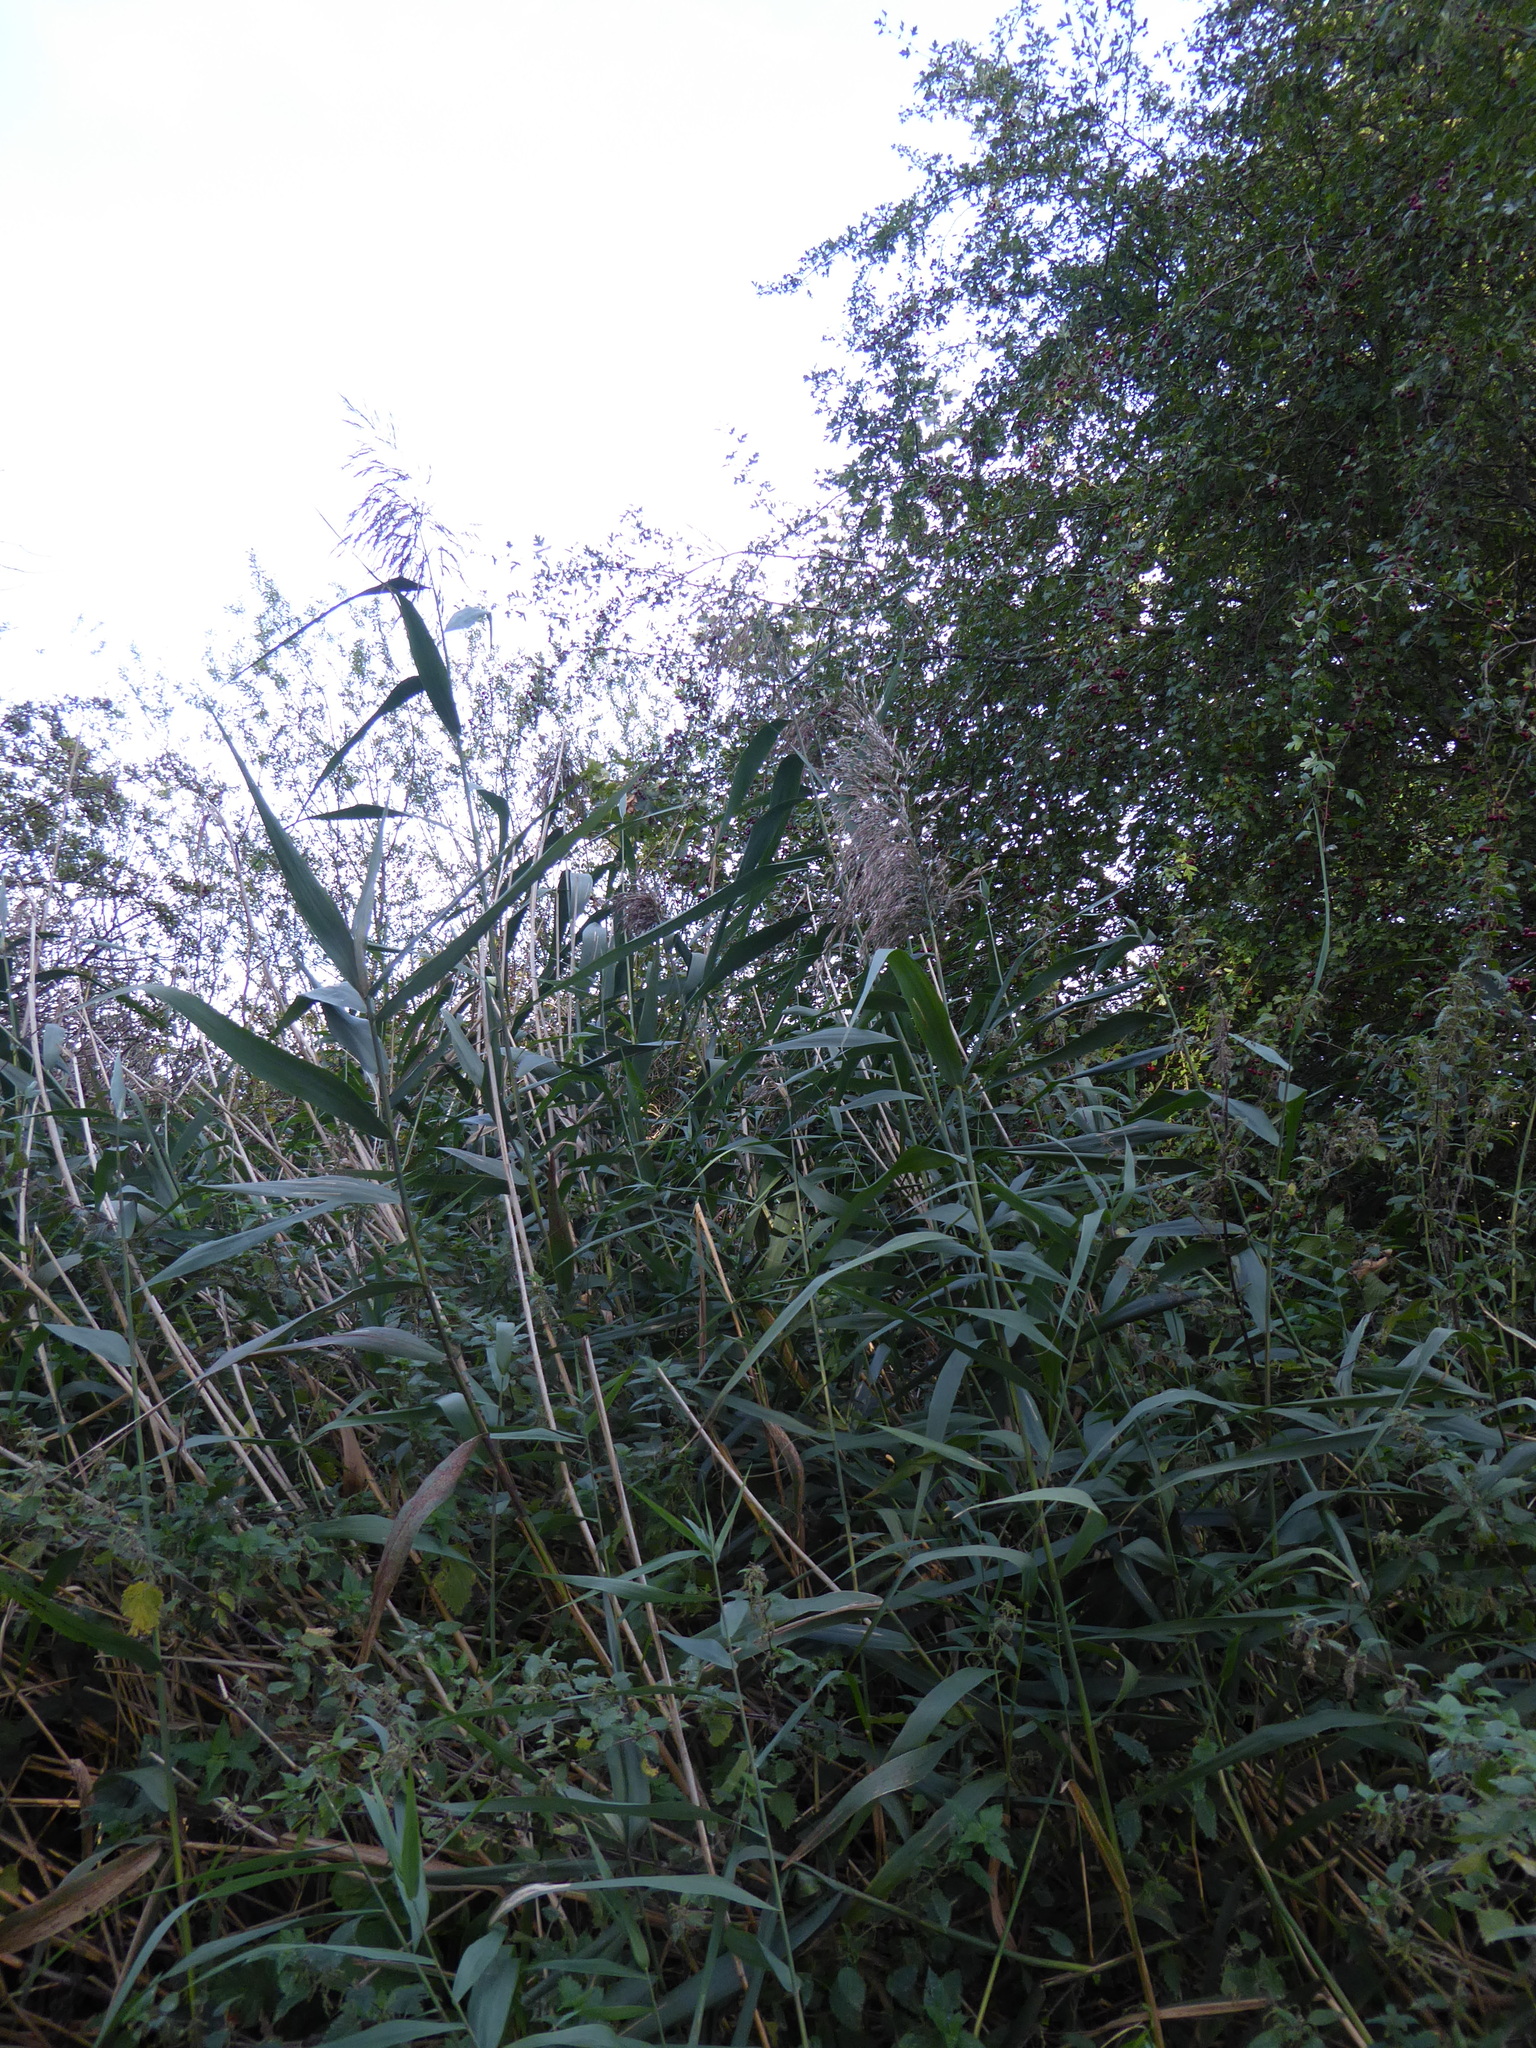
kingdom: Plantae
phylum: Tracheophyta
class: Liliopsida
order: Poales
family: Poaceae
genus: Phragmites
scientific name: Phragmites australis
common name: Common reed
